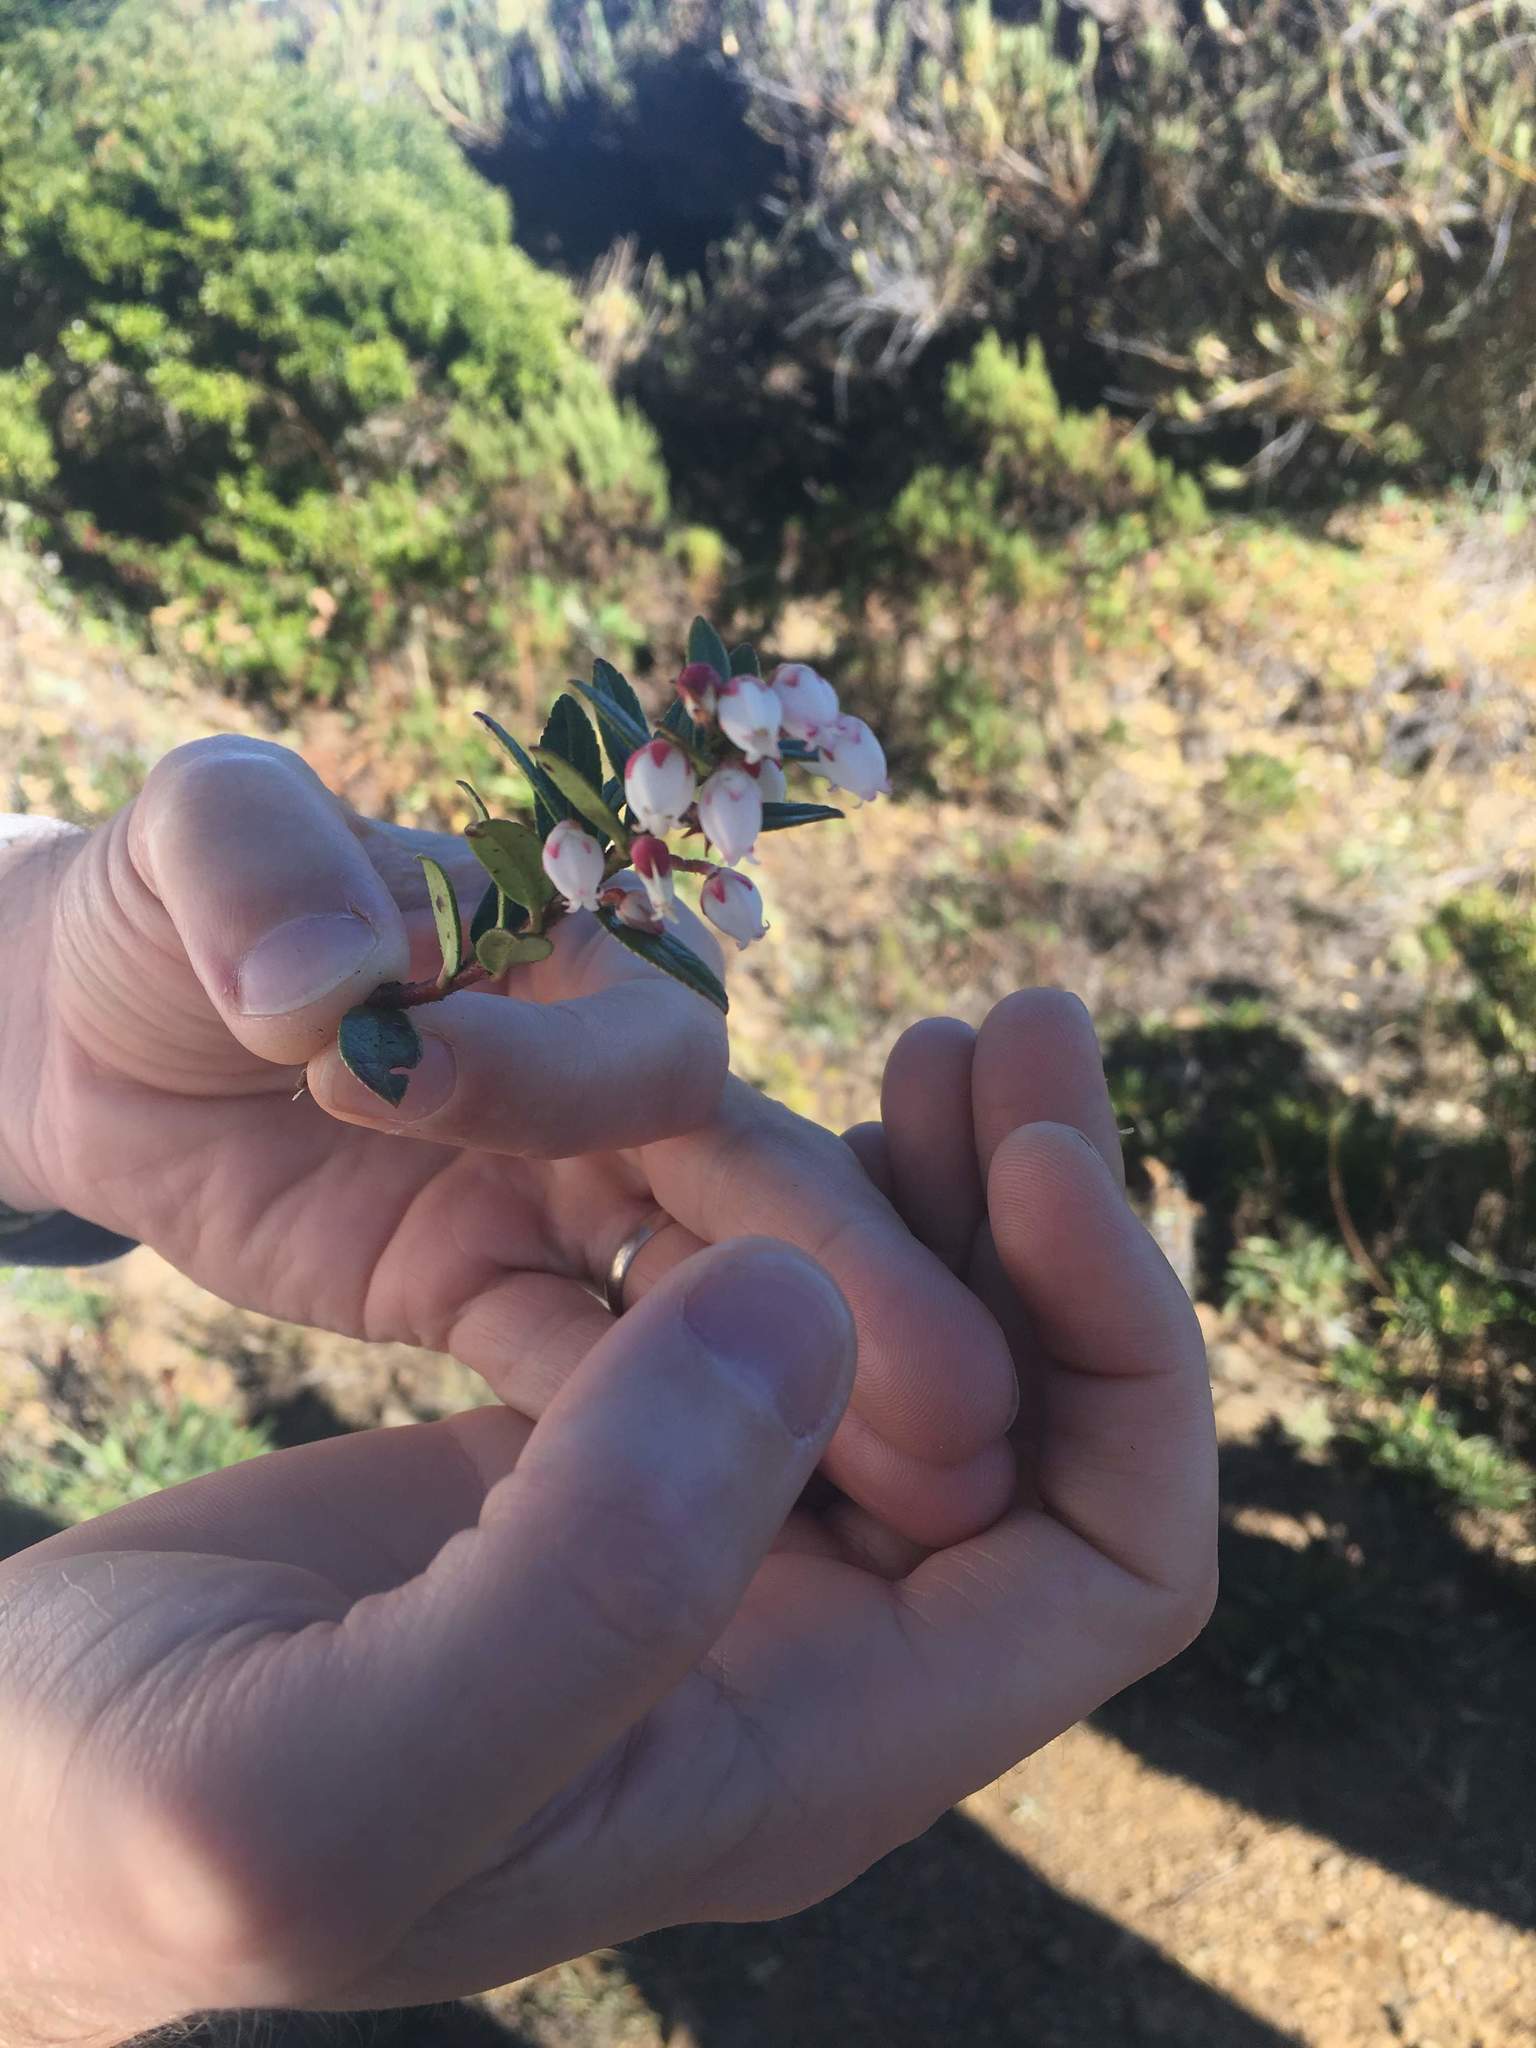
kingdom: Plantae
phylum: Tracheophyta
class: Magnoliopsida
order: Ericales
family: Ericaceae
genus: Gaultheria
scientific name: Gaultheria myrsinoides
